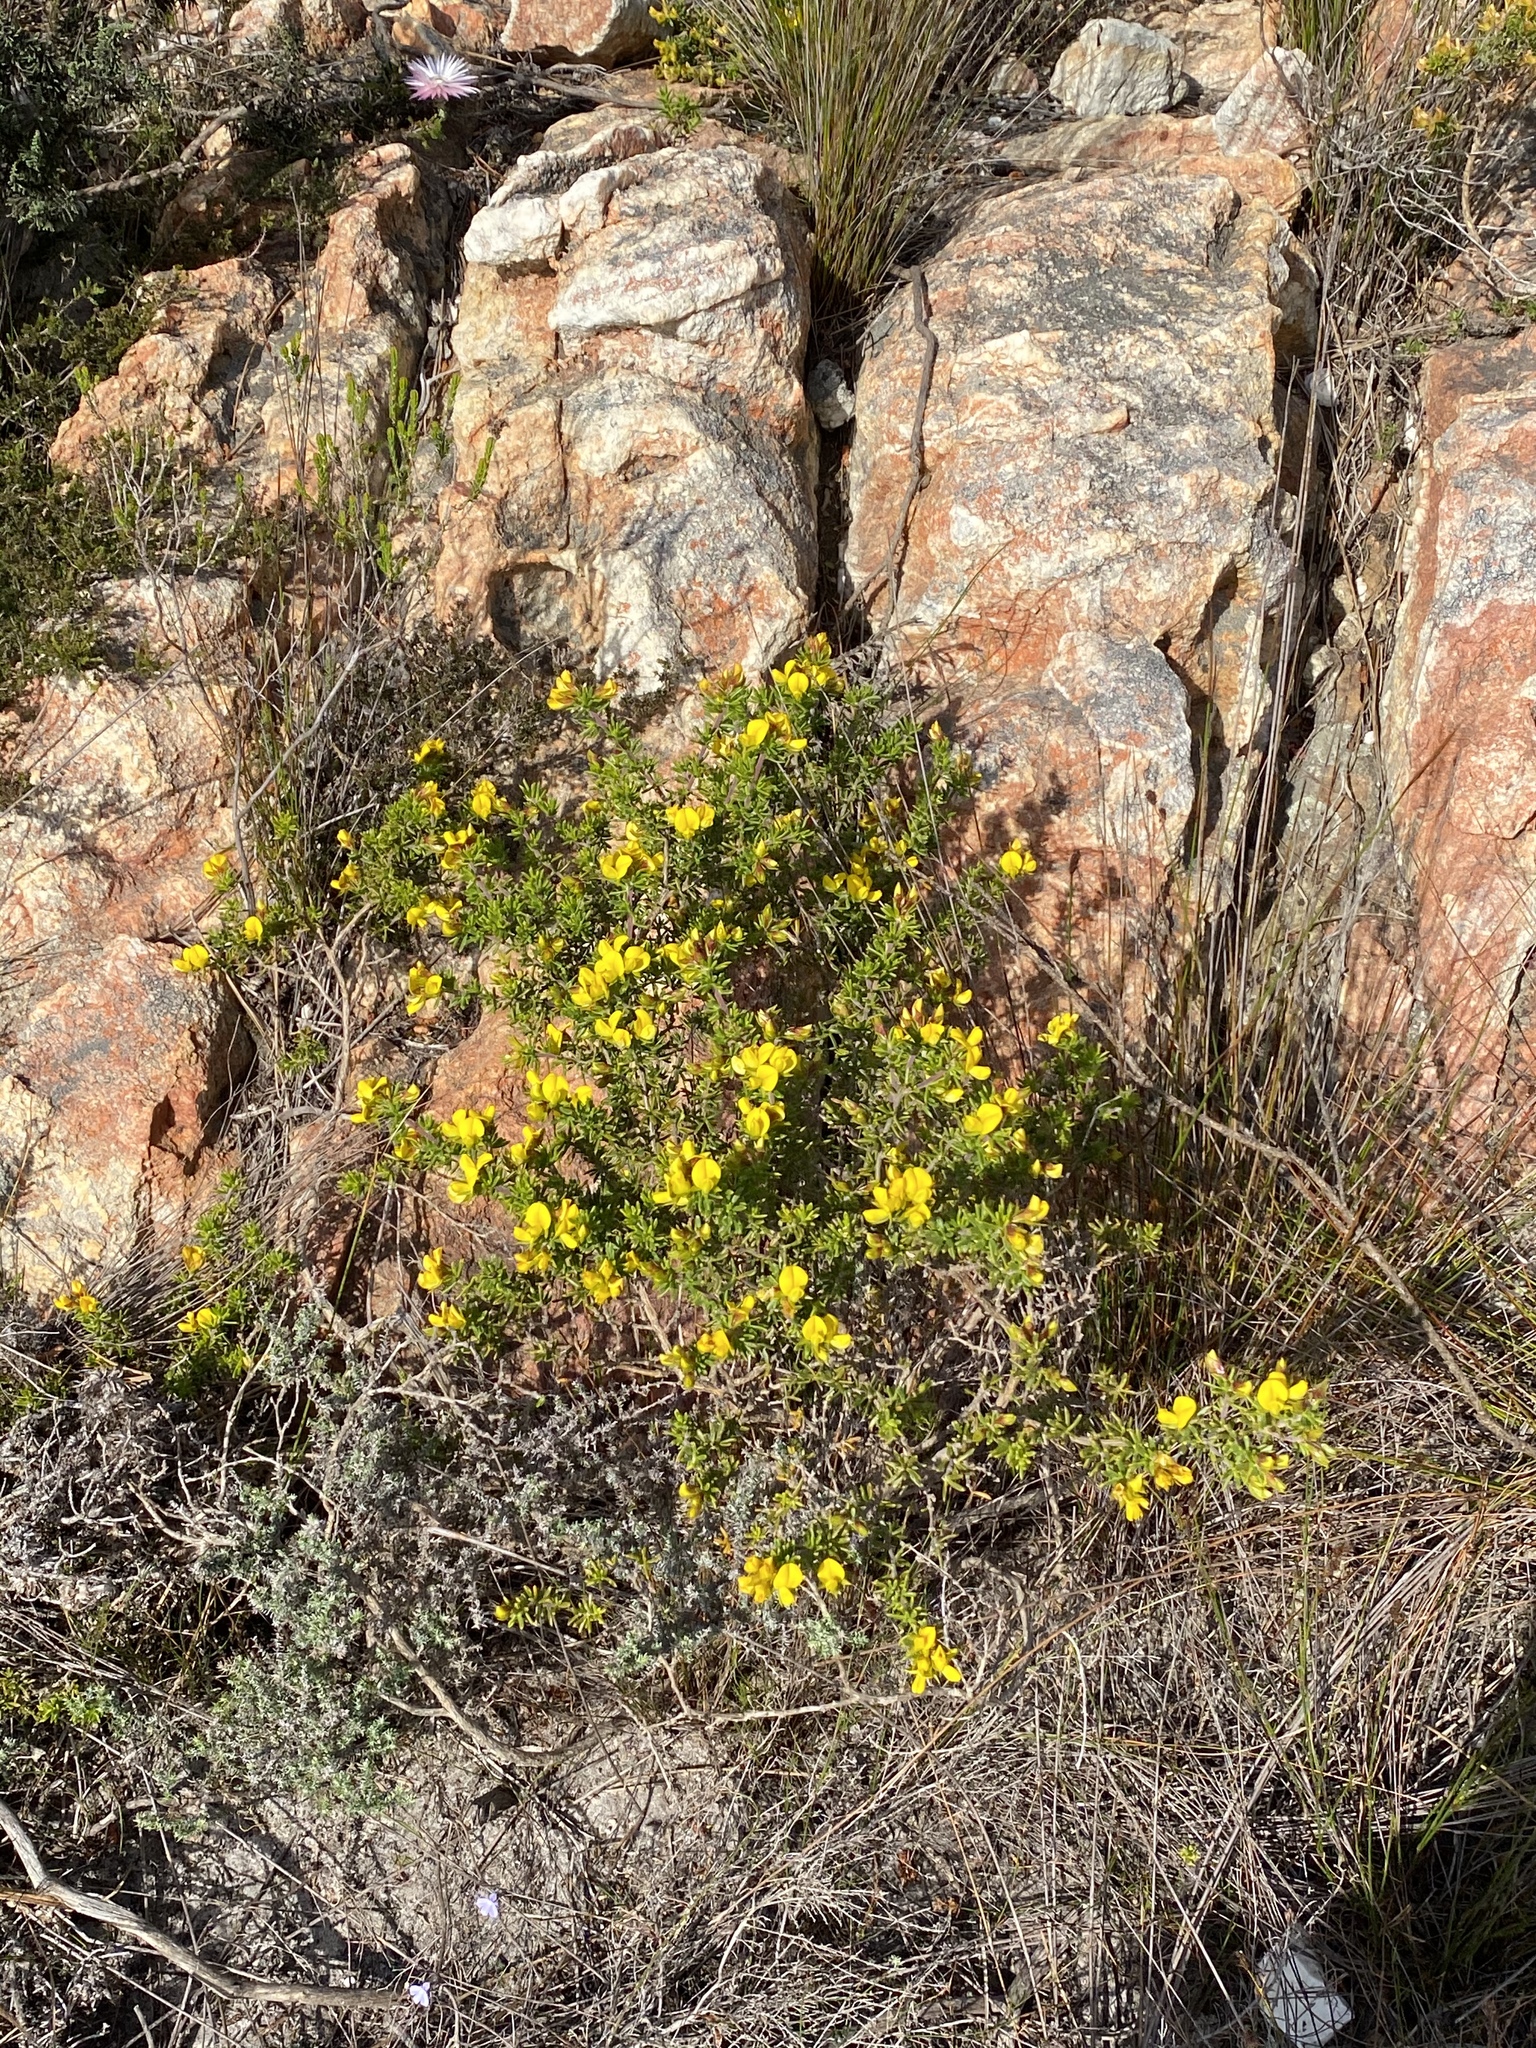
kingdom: Plantae
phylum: Tracheophyta
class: Magnoliopsida
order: Fabales
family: Fabaceae
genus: Aspalathus
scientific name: Aspalathus citrina
